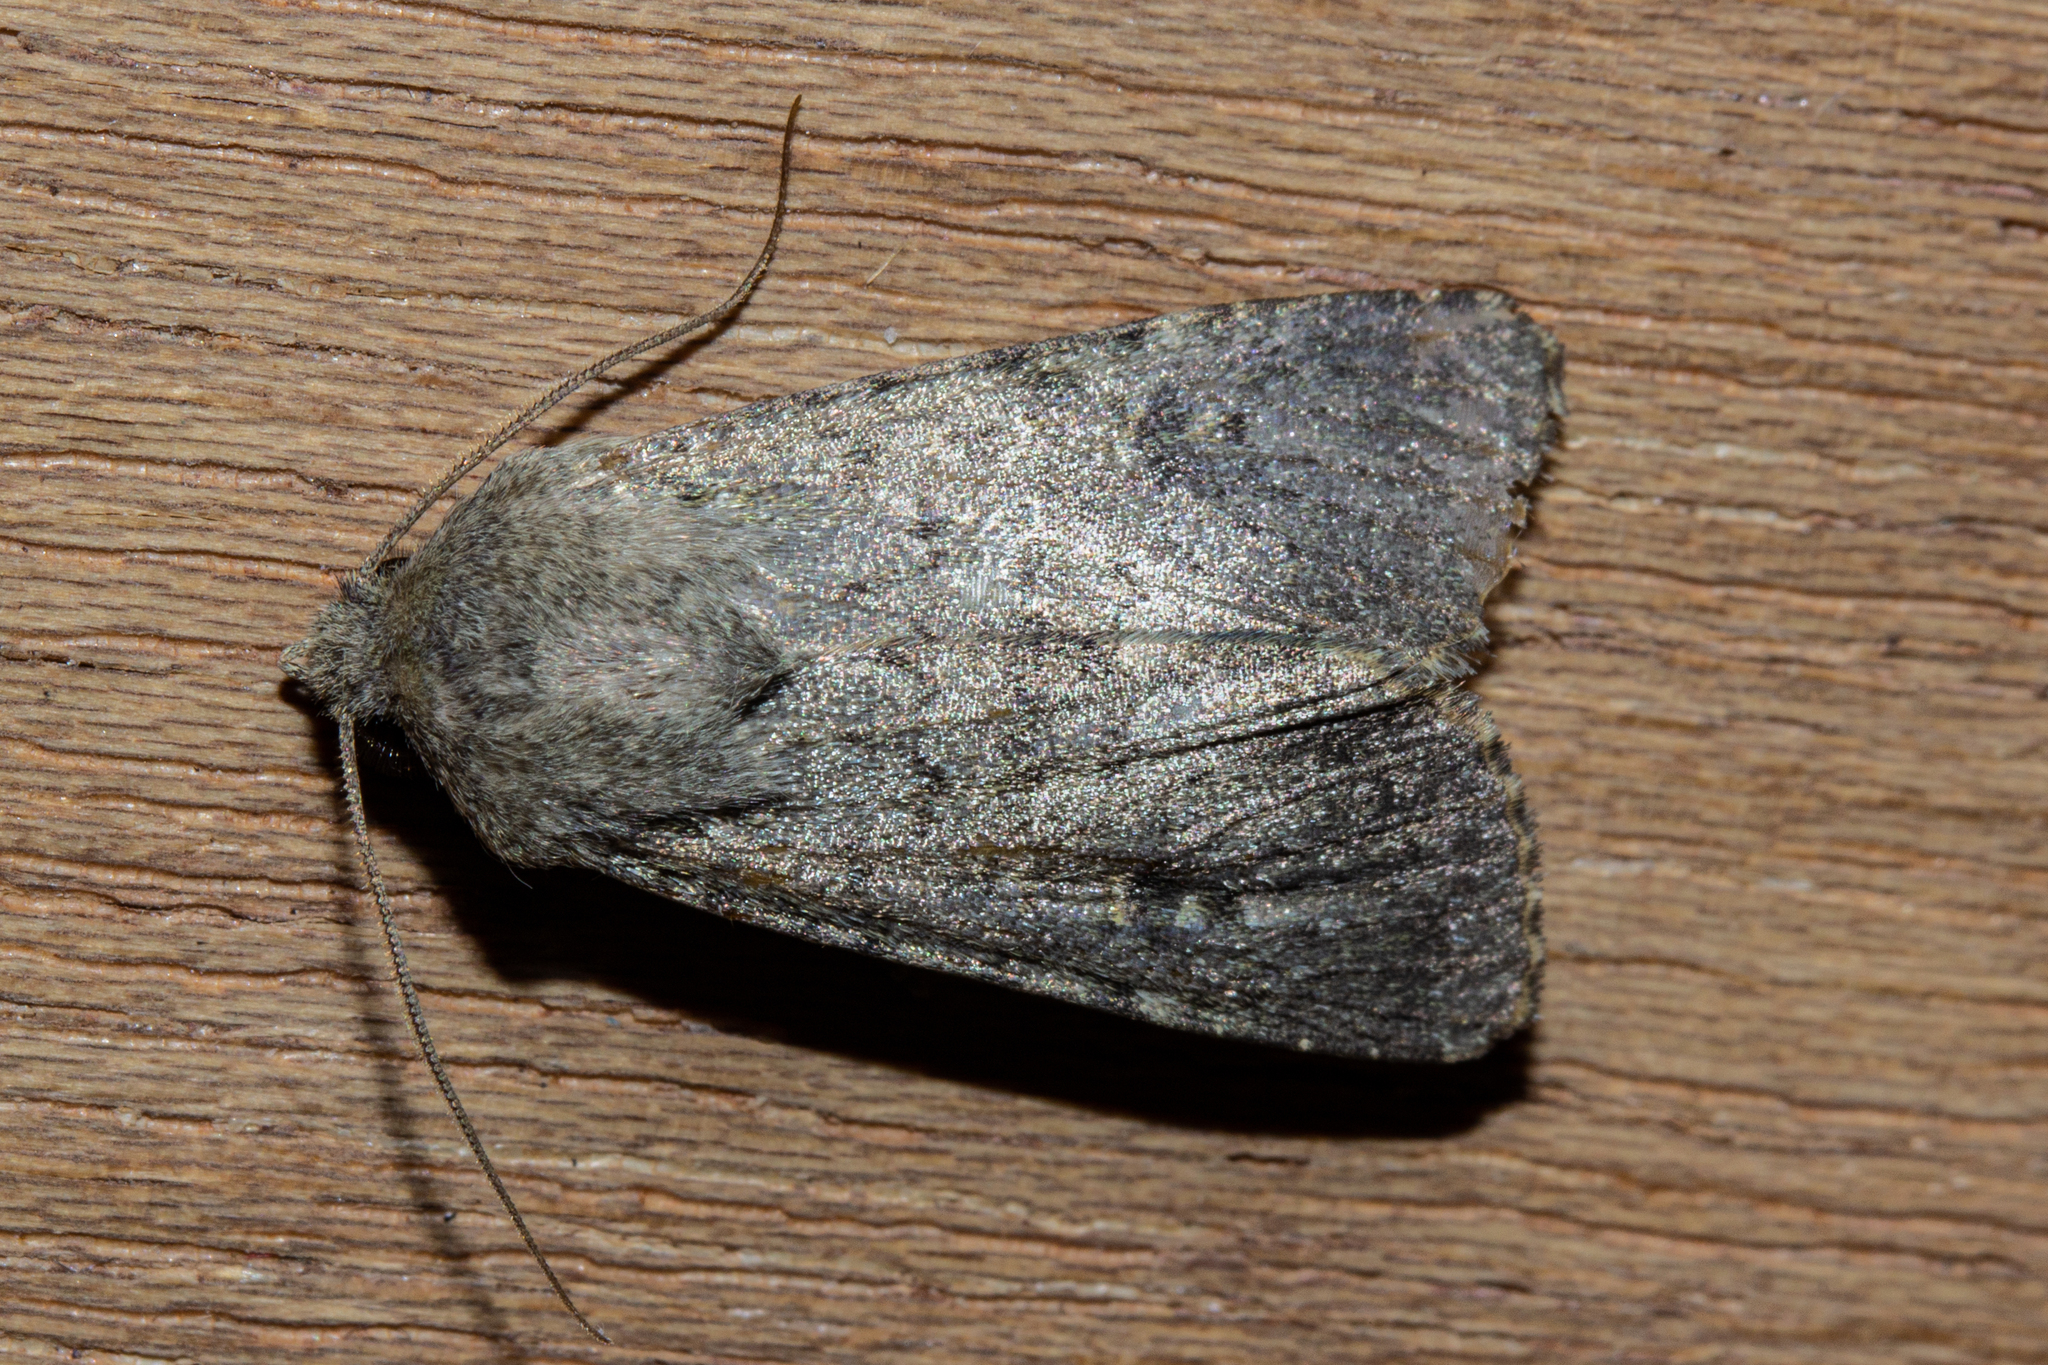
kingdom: Animalia
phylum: Arthropoda
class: Insecta
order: Lepidoptera
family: Noctuidae
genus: Ichneutica
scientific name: Ichneutica moderata
